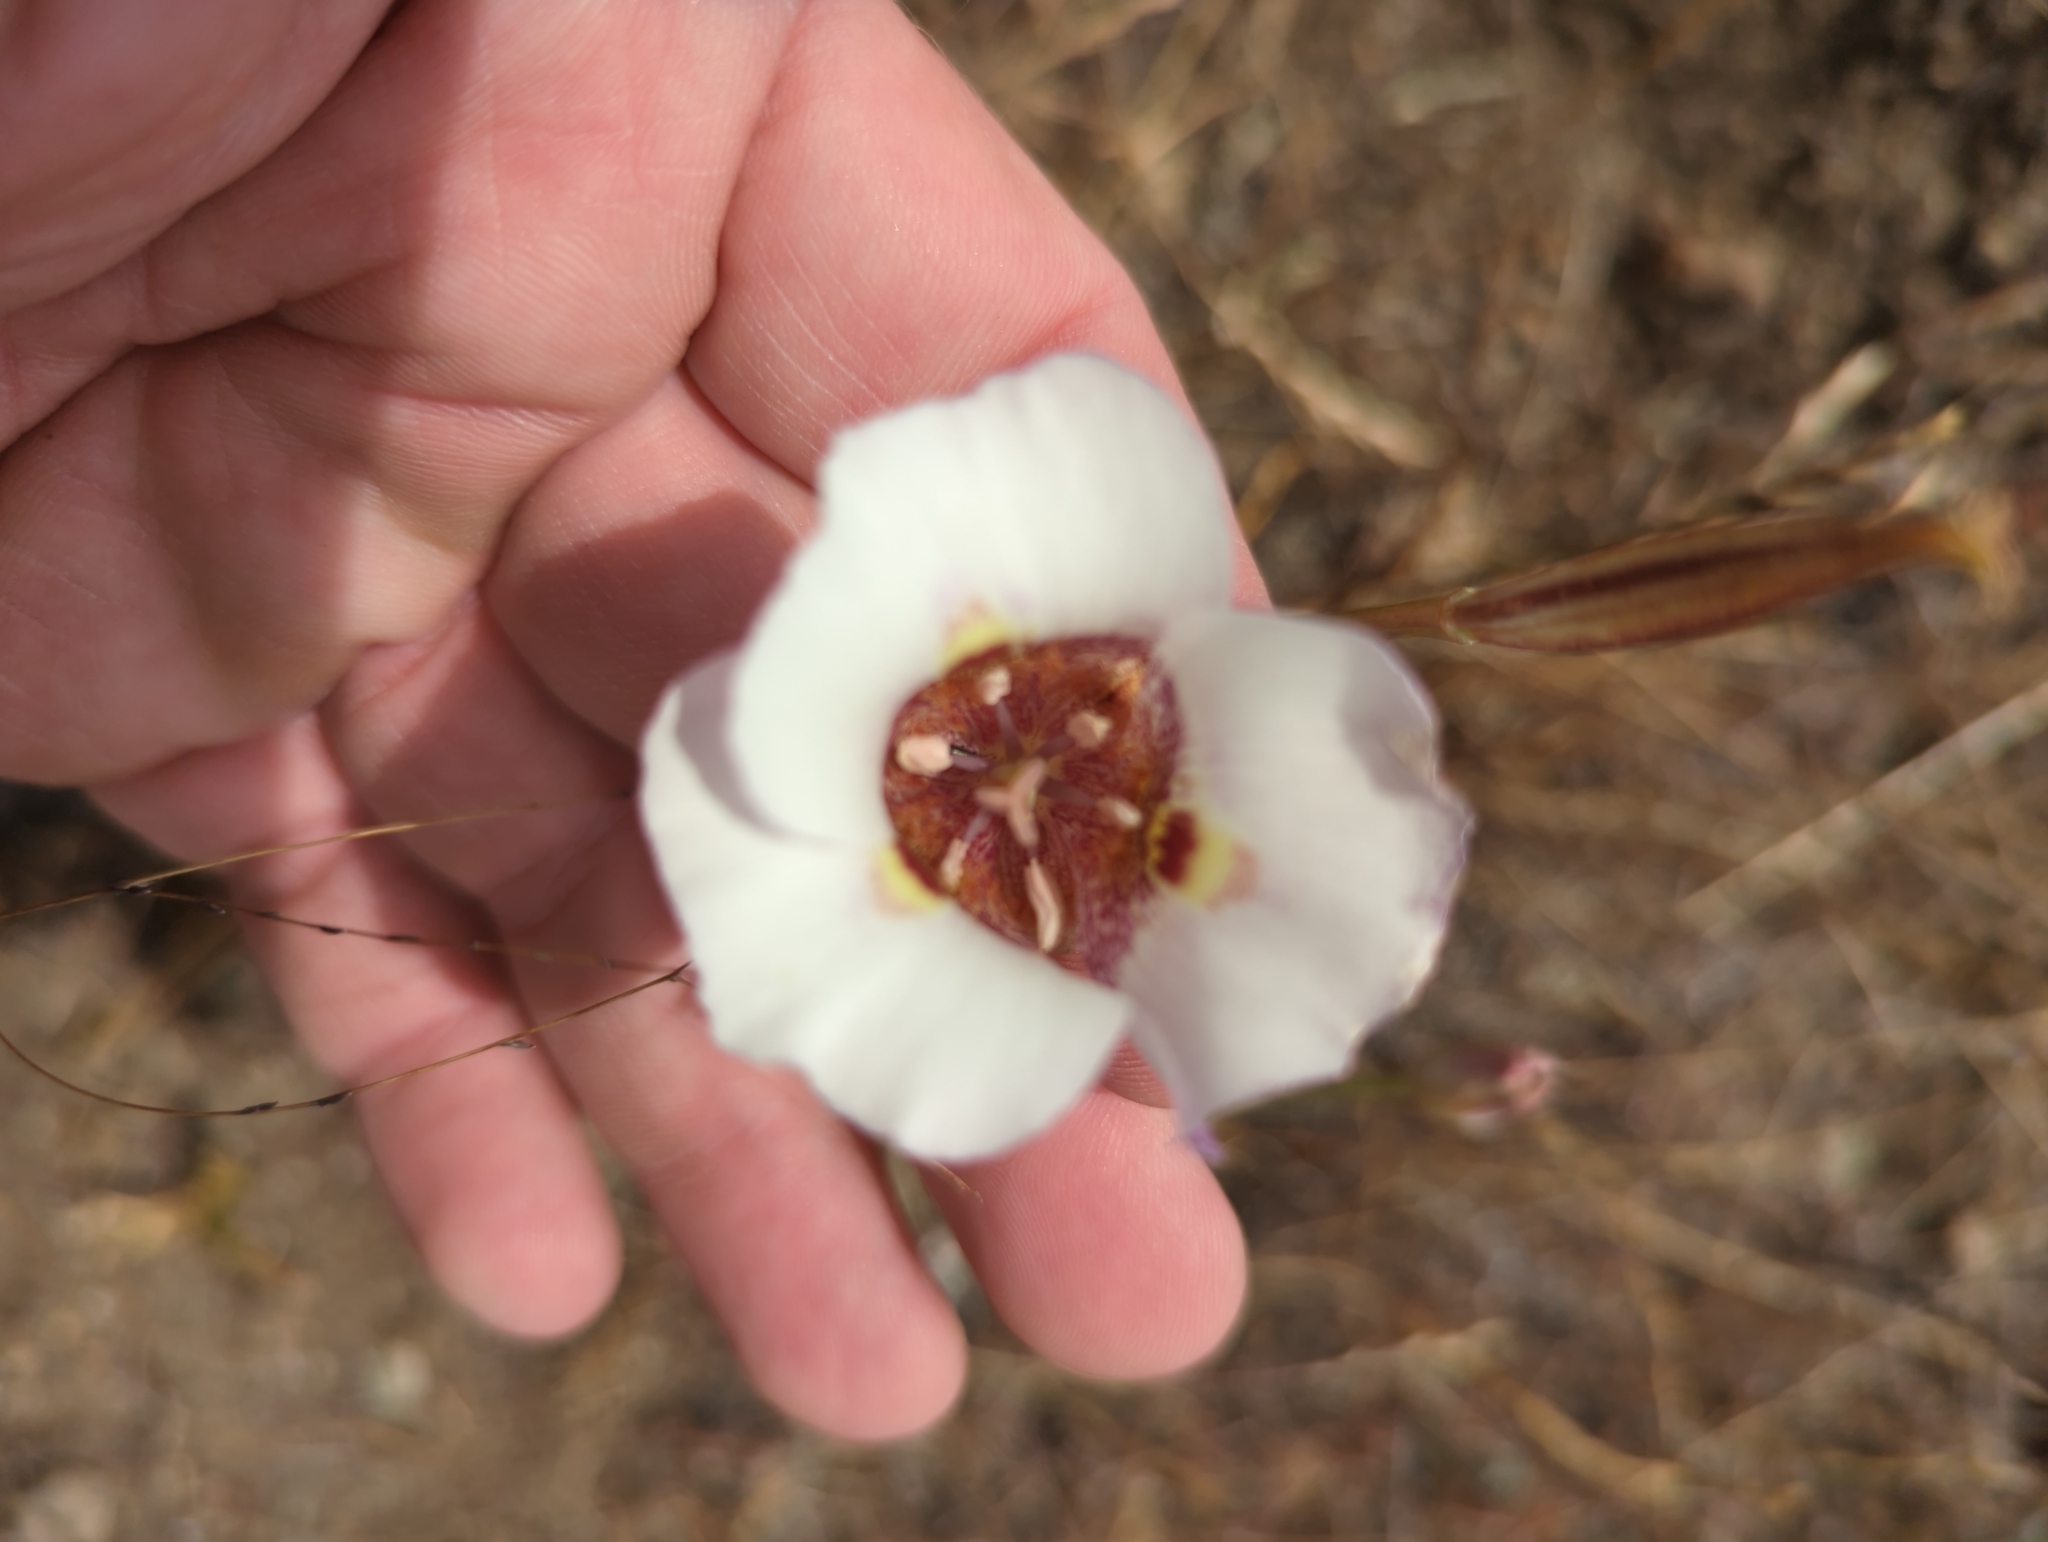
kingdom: Plantae
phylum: Tracheophyta
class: Liliopsida
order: Liliales
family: Liliaceae
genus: Calochortus
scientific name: Calochortus argillosus
